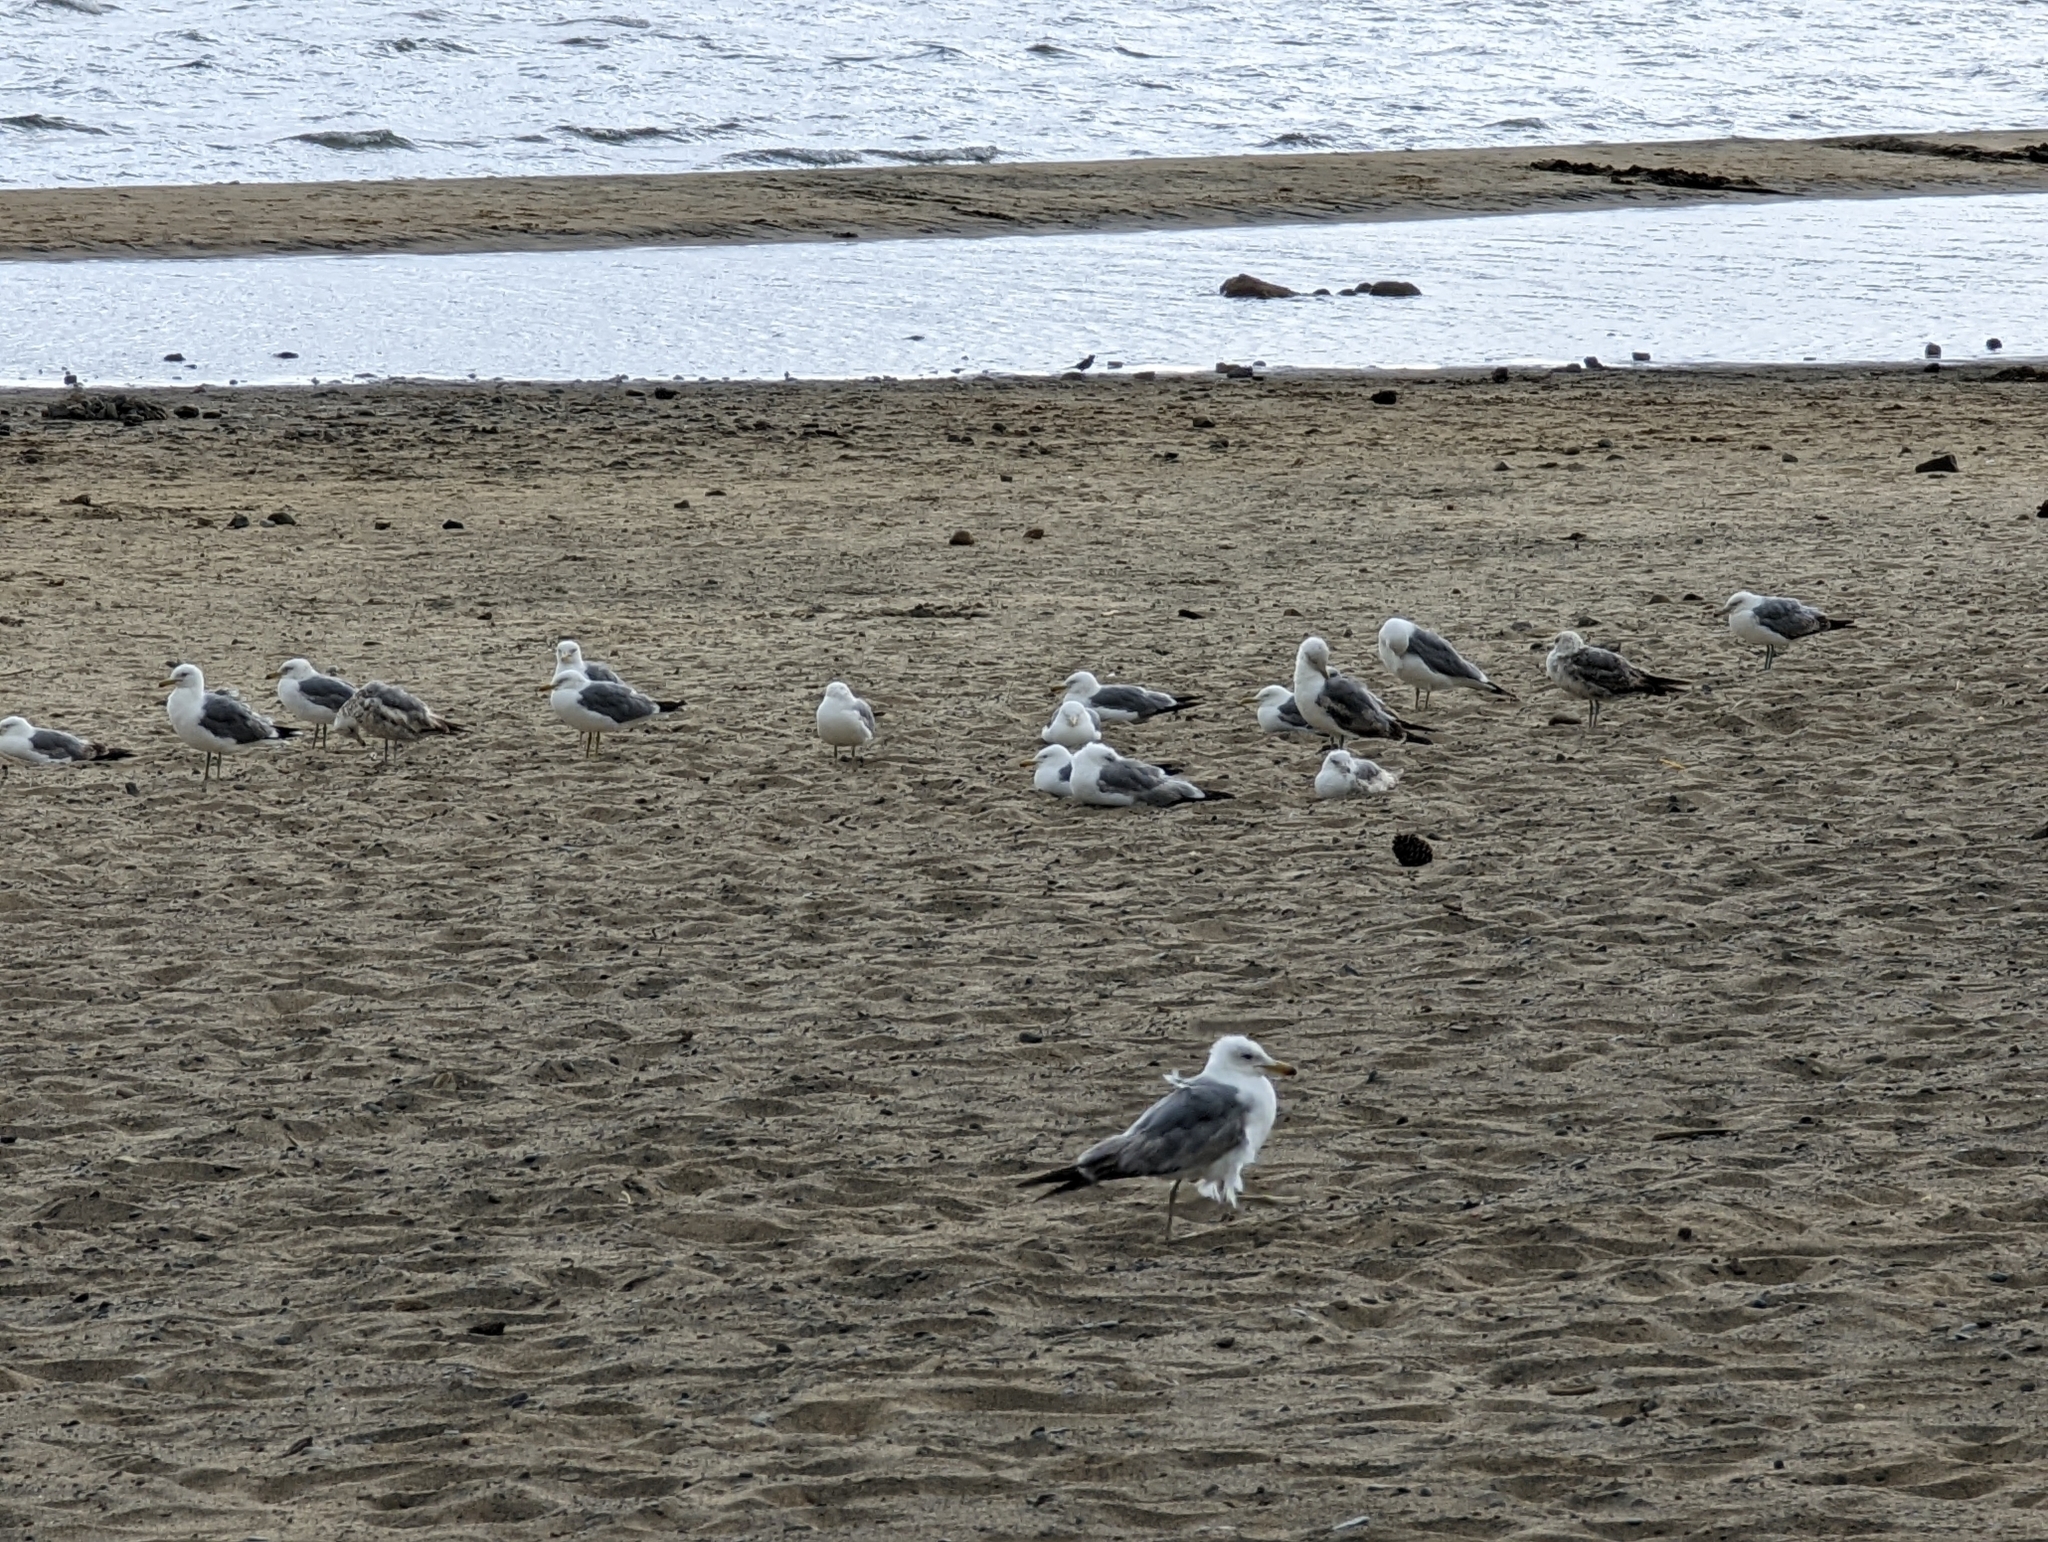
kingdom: Animalia
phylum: Chordata
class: Aves
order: Charadriiformes
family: Laridae
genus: Larus
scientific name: Larus californicus
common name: California gull
